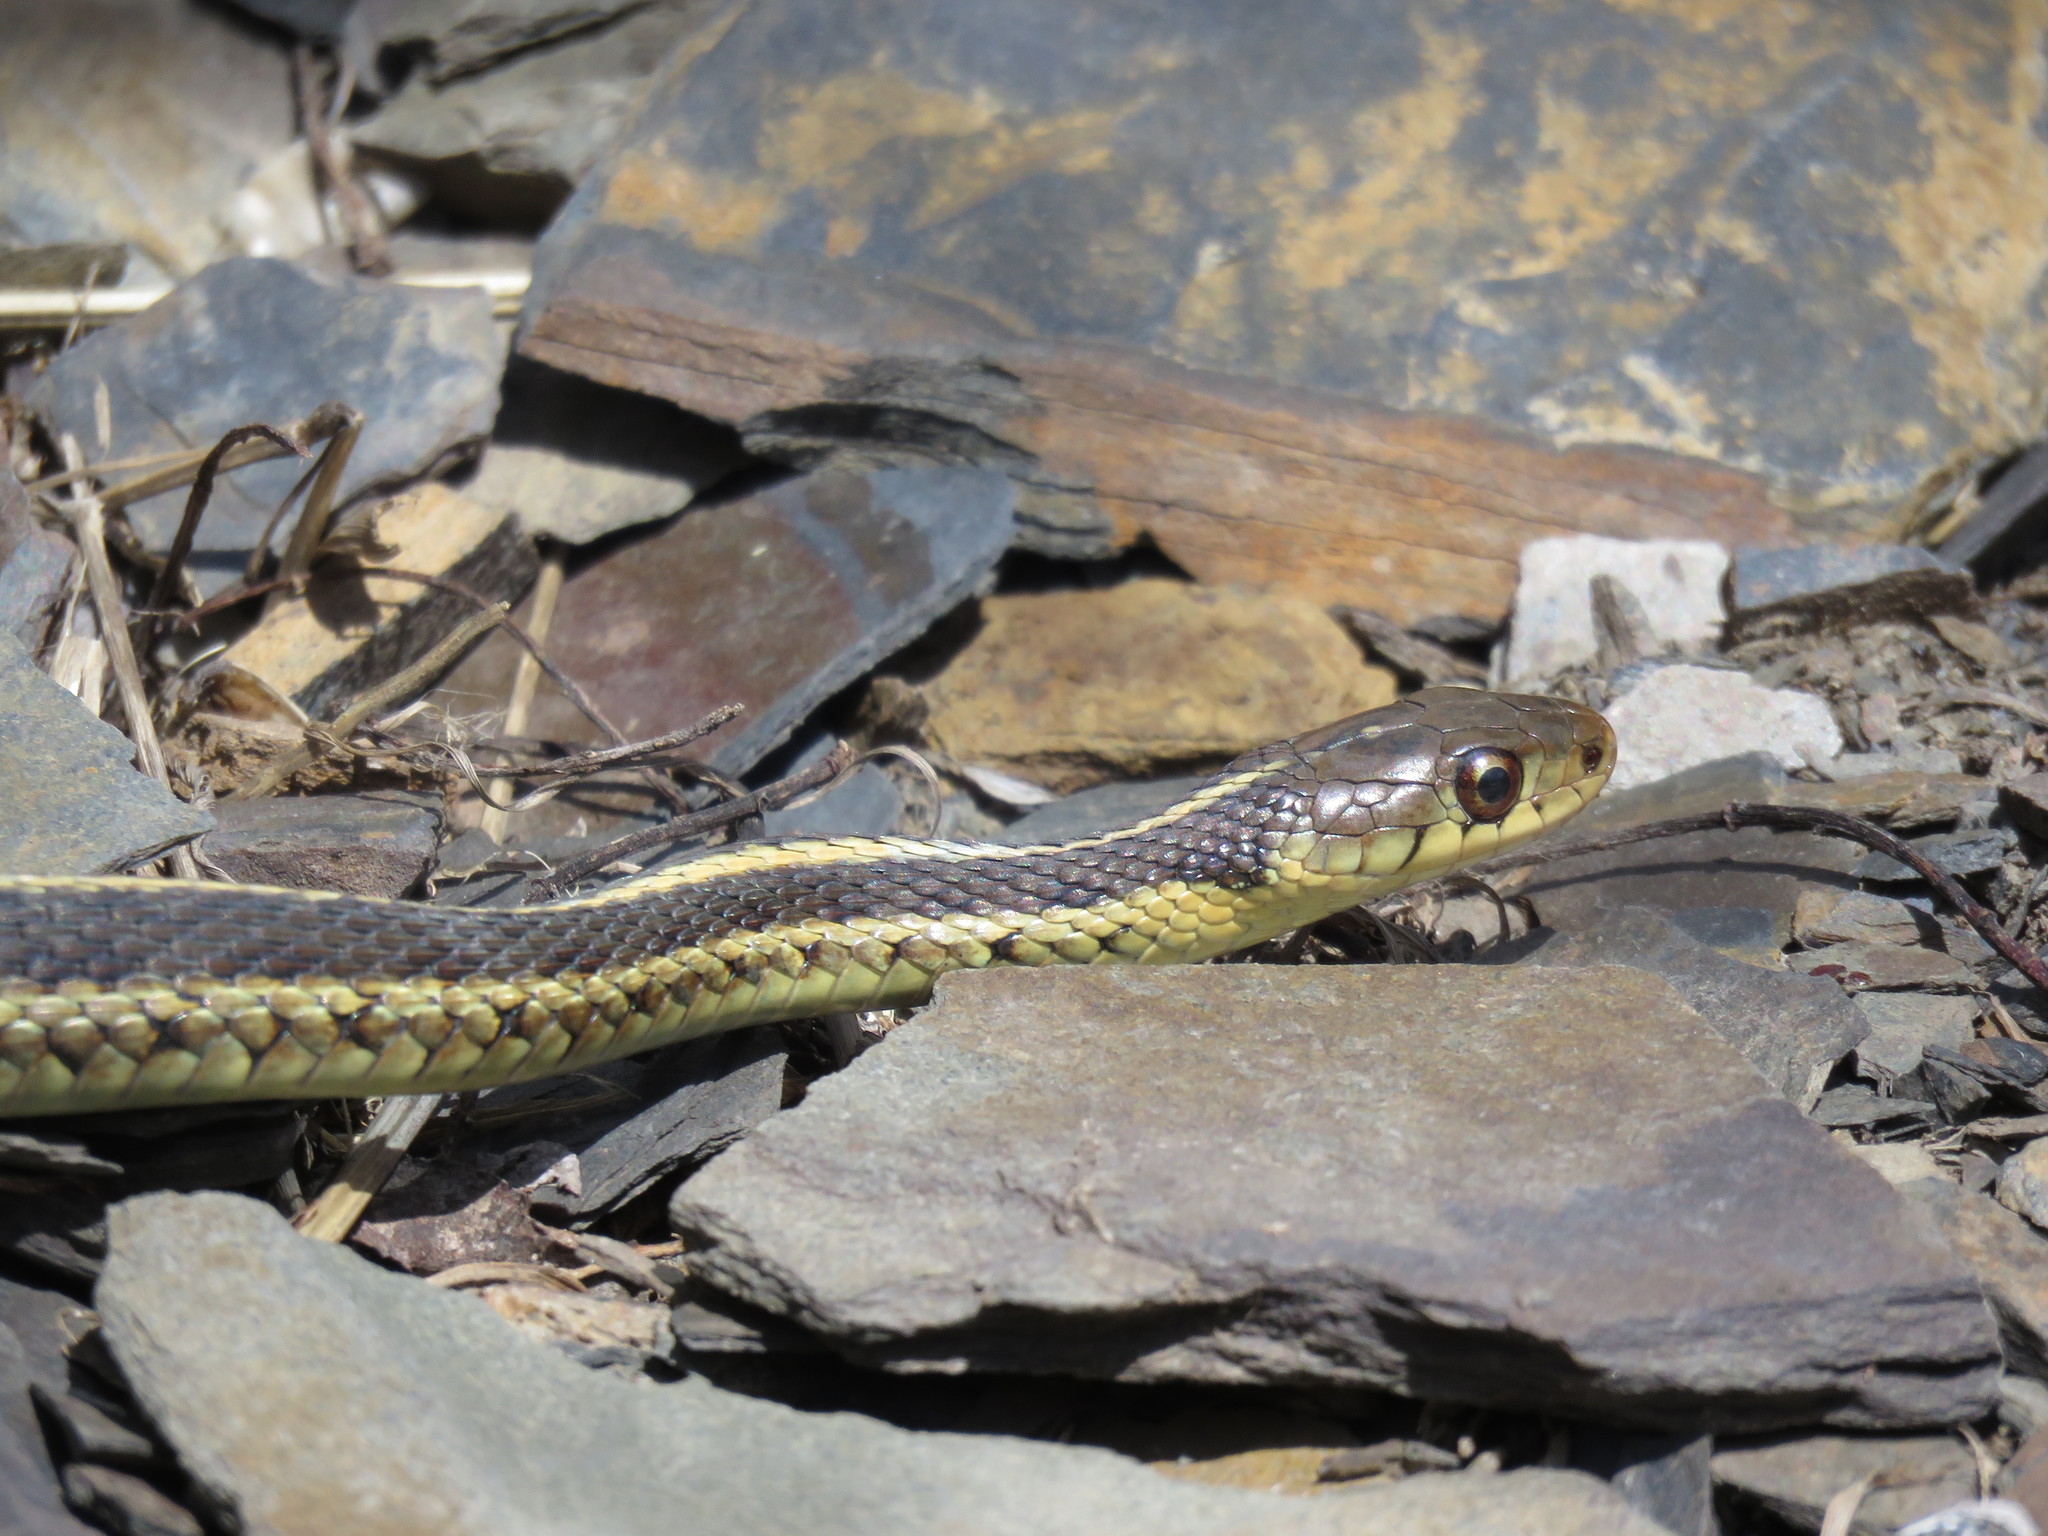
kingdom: Animalia
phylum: Chordata
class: Squamata
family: Colubridae
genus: Thamnophis
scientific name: Thamnophis sirtalis
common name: Common garter snake
